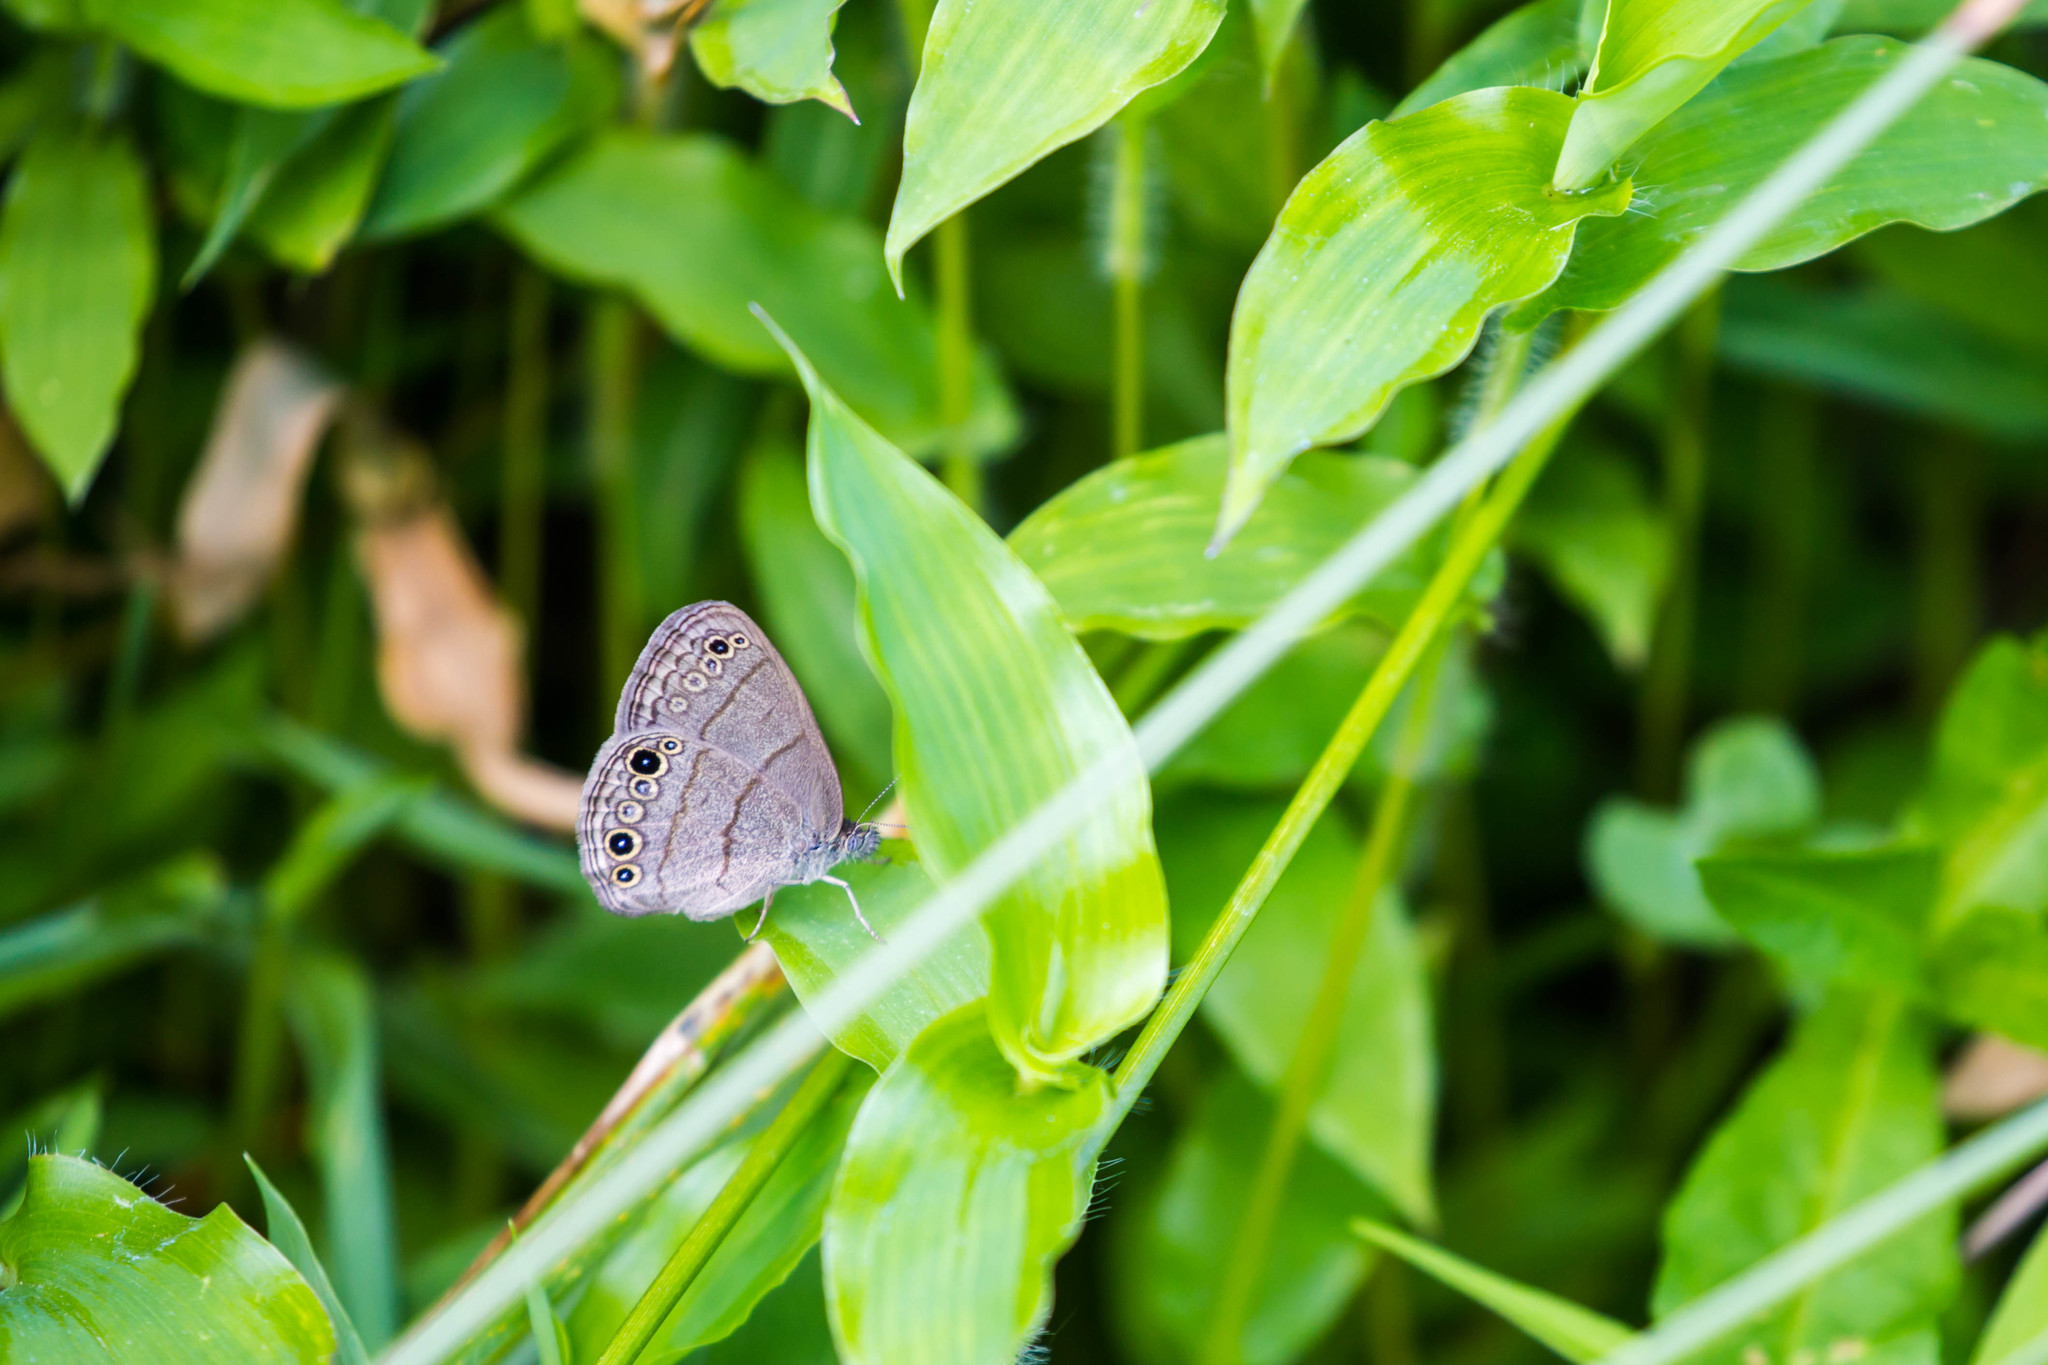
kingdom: Animalia
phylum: Arthropoda
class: Insecta
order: Lepidoptera
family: Nymphalidae
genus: Hermeuptychia
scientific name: Hermeuptychia hermes
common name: Hermes satyr
